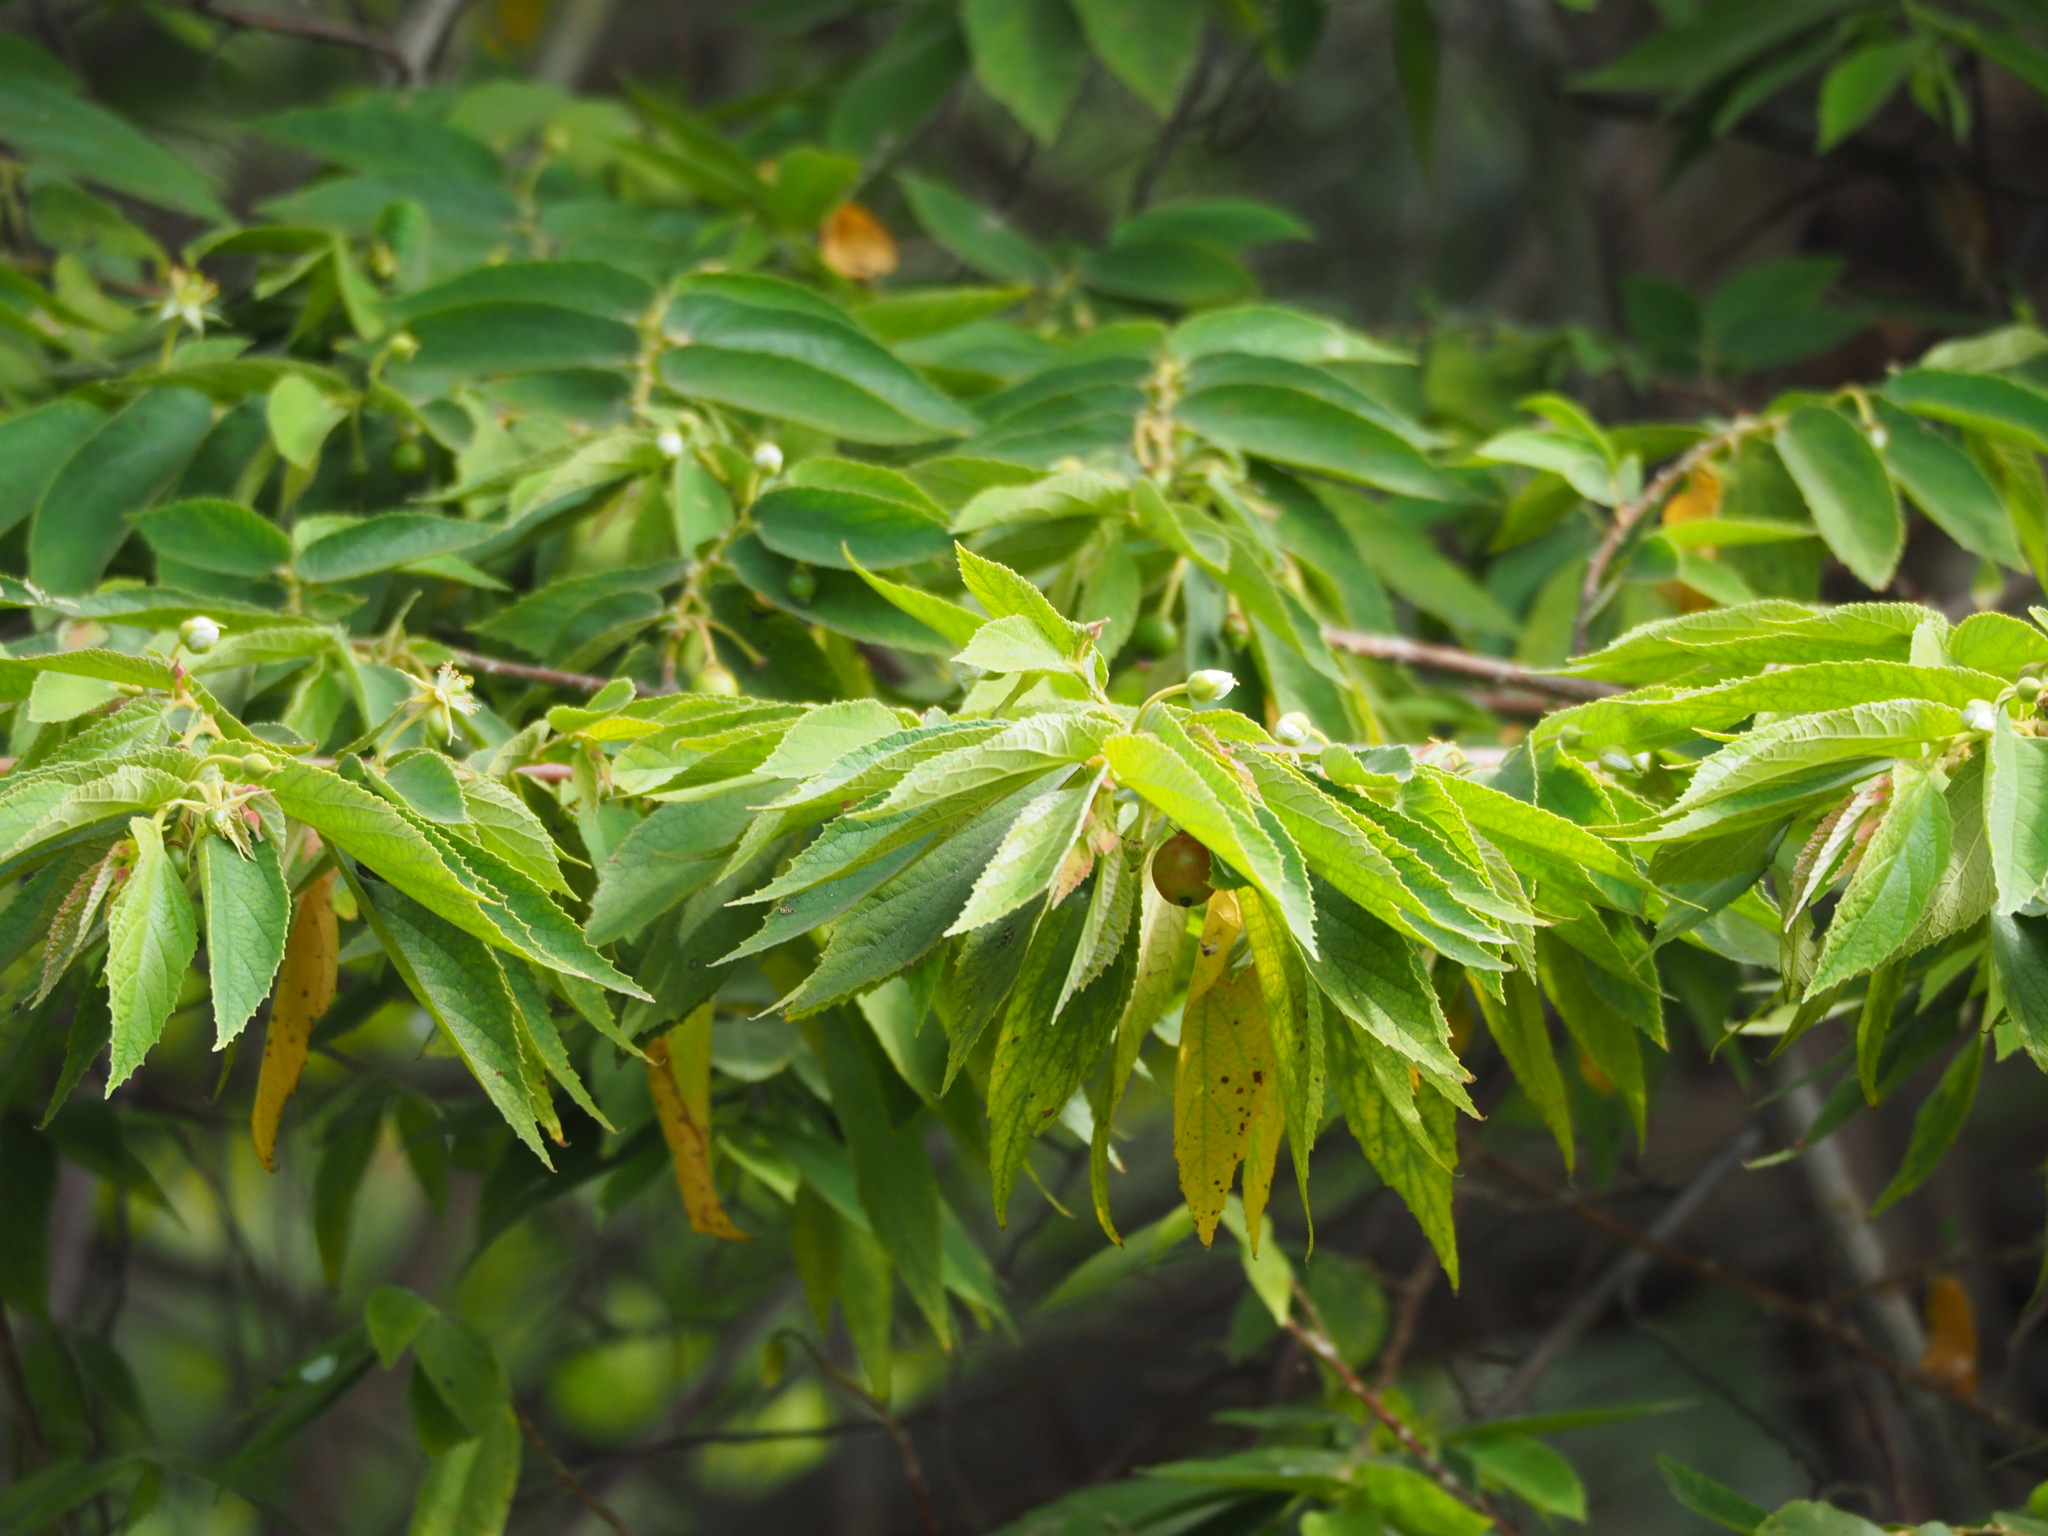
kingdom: Plantae
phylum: Tracheophyta
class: Magnoliopsida
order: Malvales
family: Muntingiaceae
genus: Muntingia
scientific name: Muntingia calabura
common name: Strawberrytree
